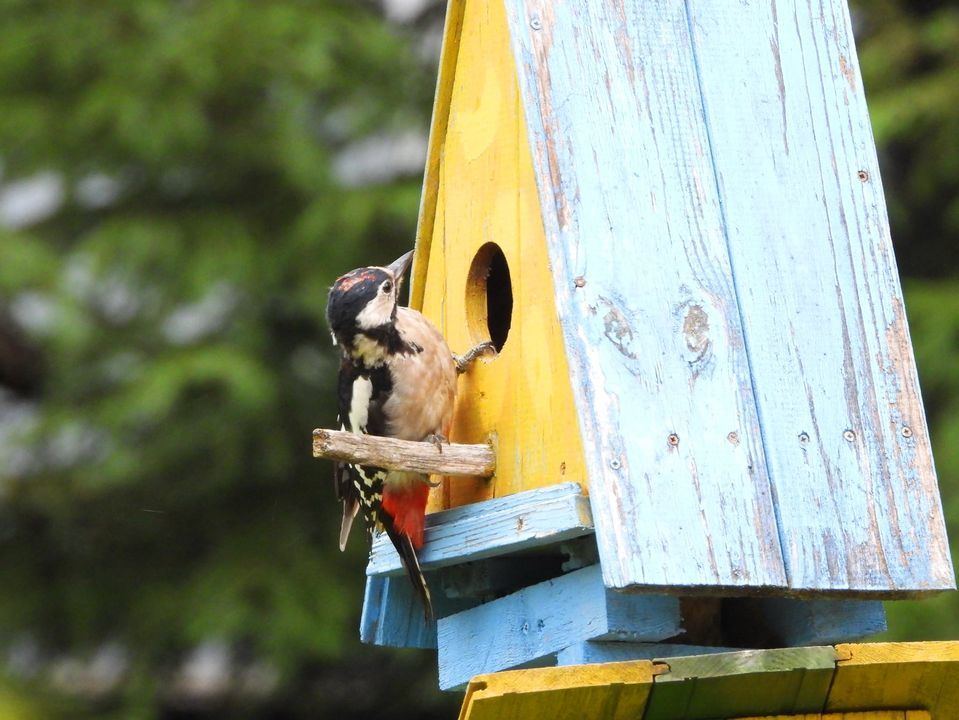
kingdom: Animalia
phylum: Chordata
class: Aves
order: Piciformes
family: Picidae
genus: Dendrocopos
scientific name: Dendrocopos major
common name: Great spotted woodpecker
